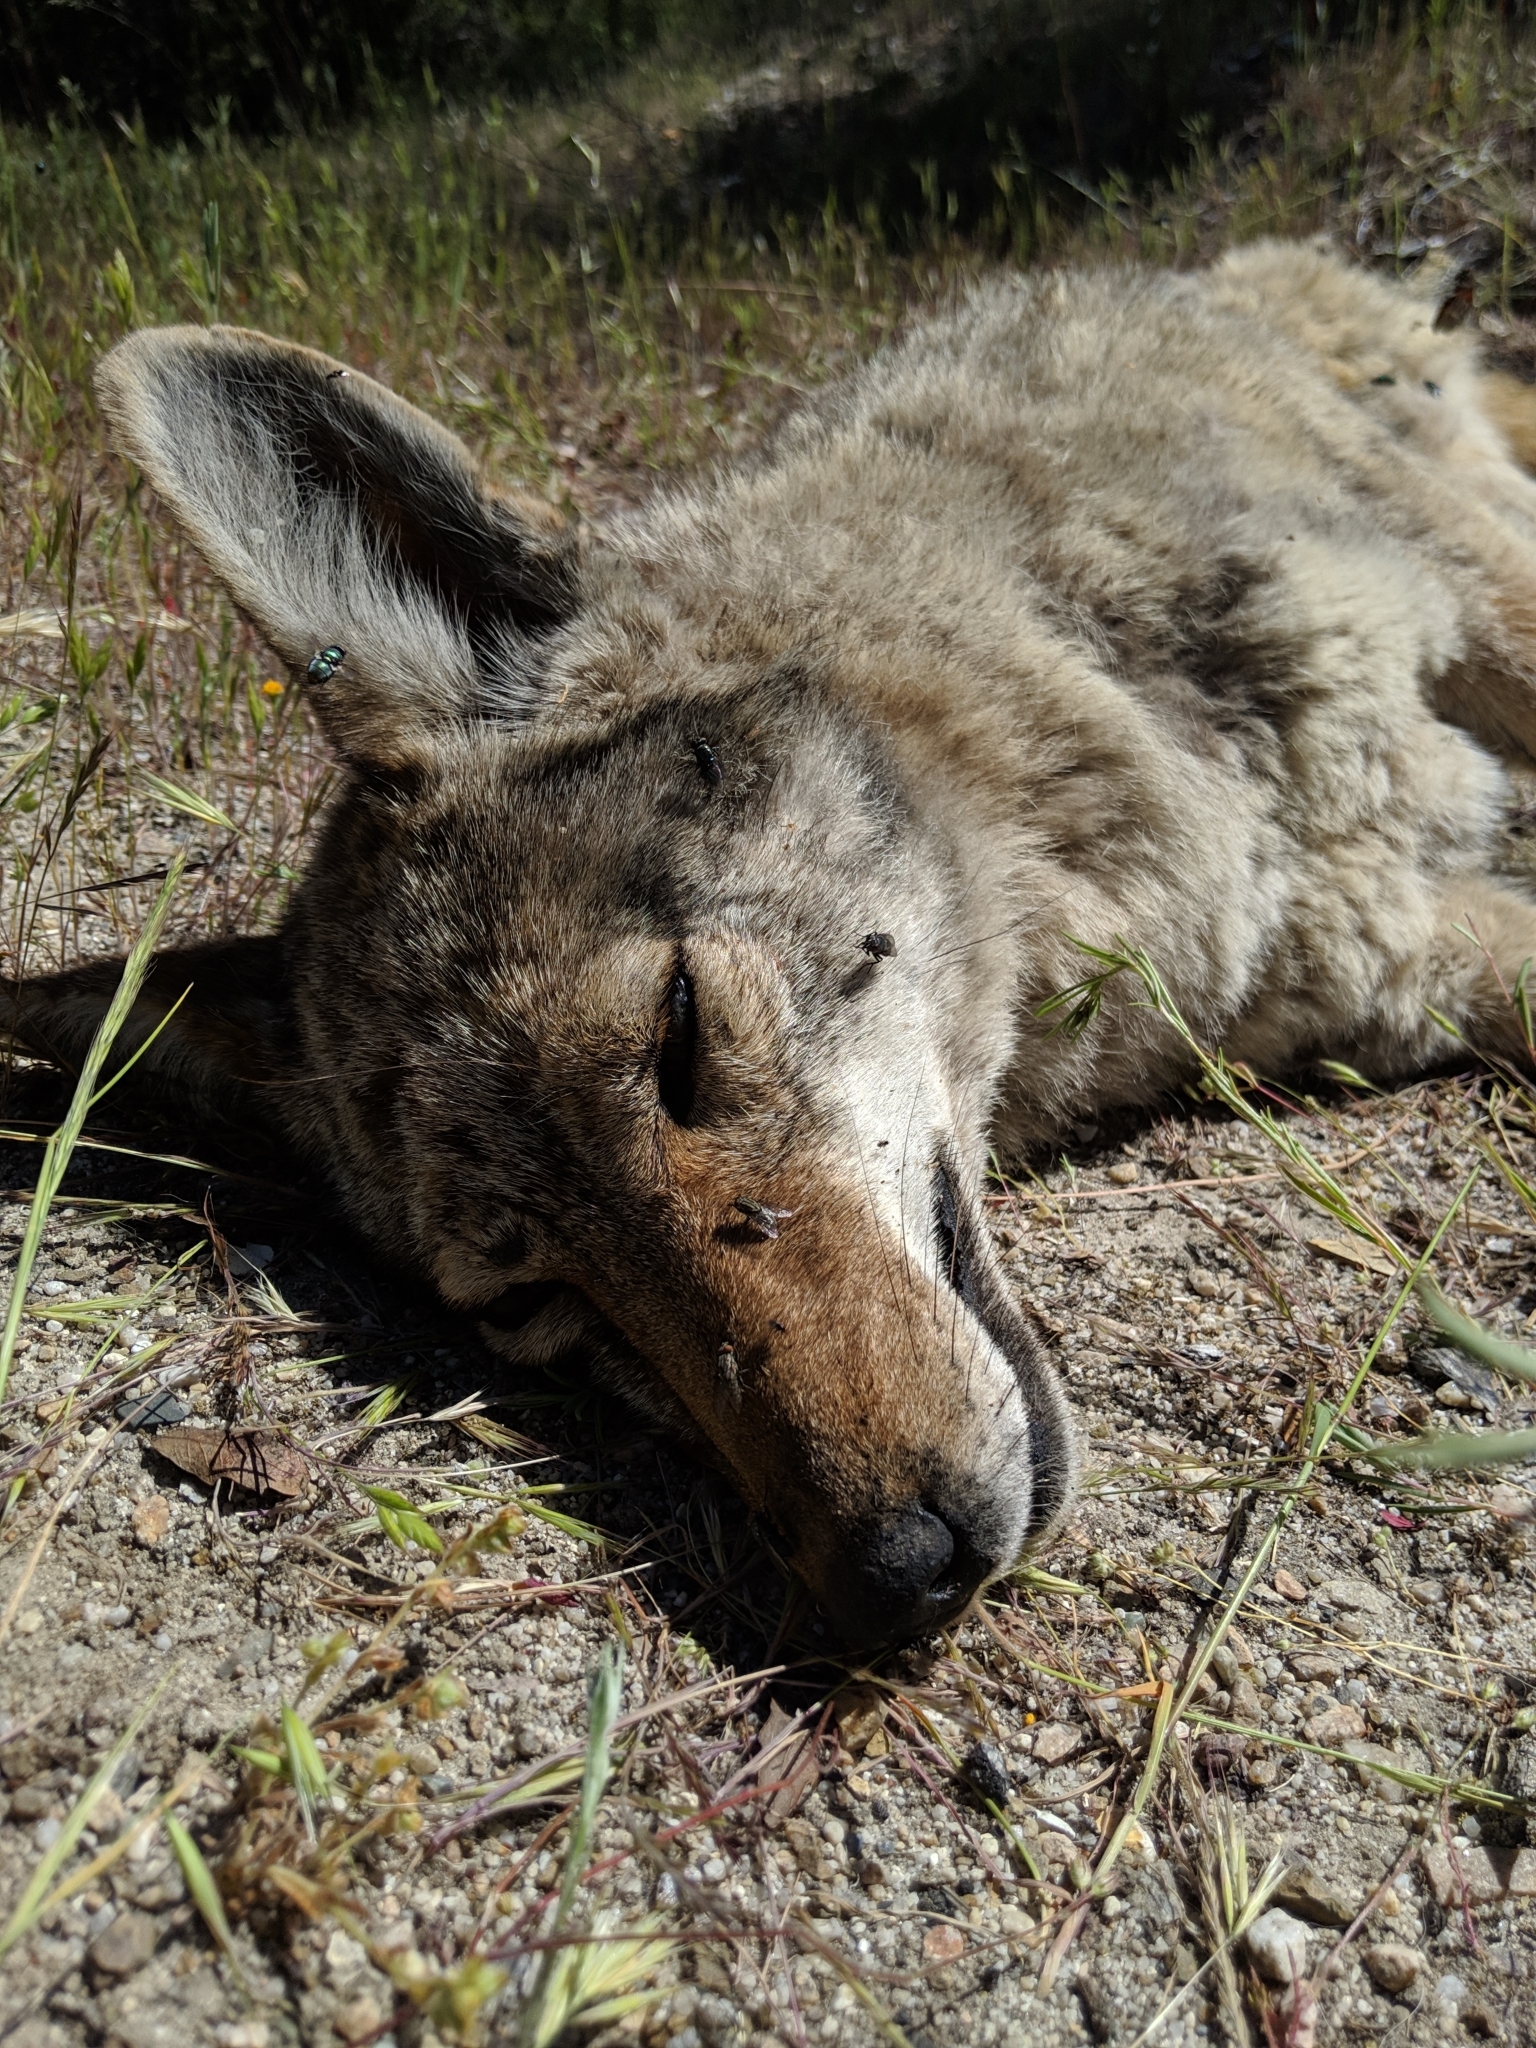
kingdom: Animalia
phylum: Chordata
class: Mammalia
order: Carnivora
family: Canidae
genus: Canis
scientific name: Canis latrans
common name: Coyote
